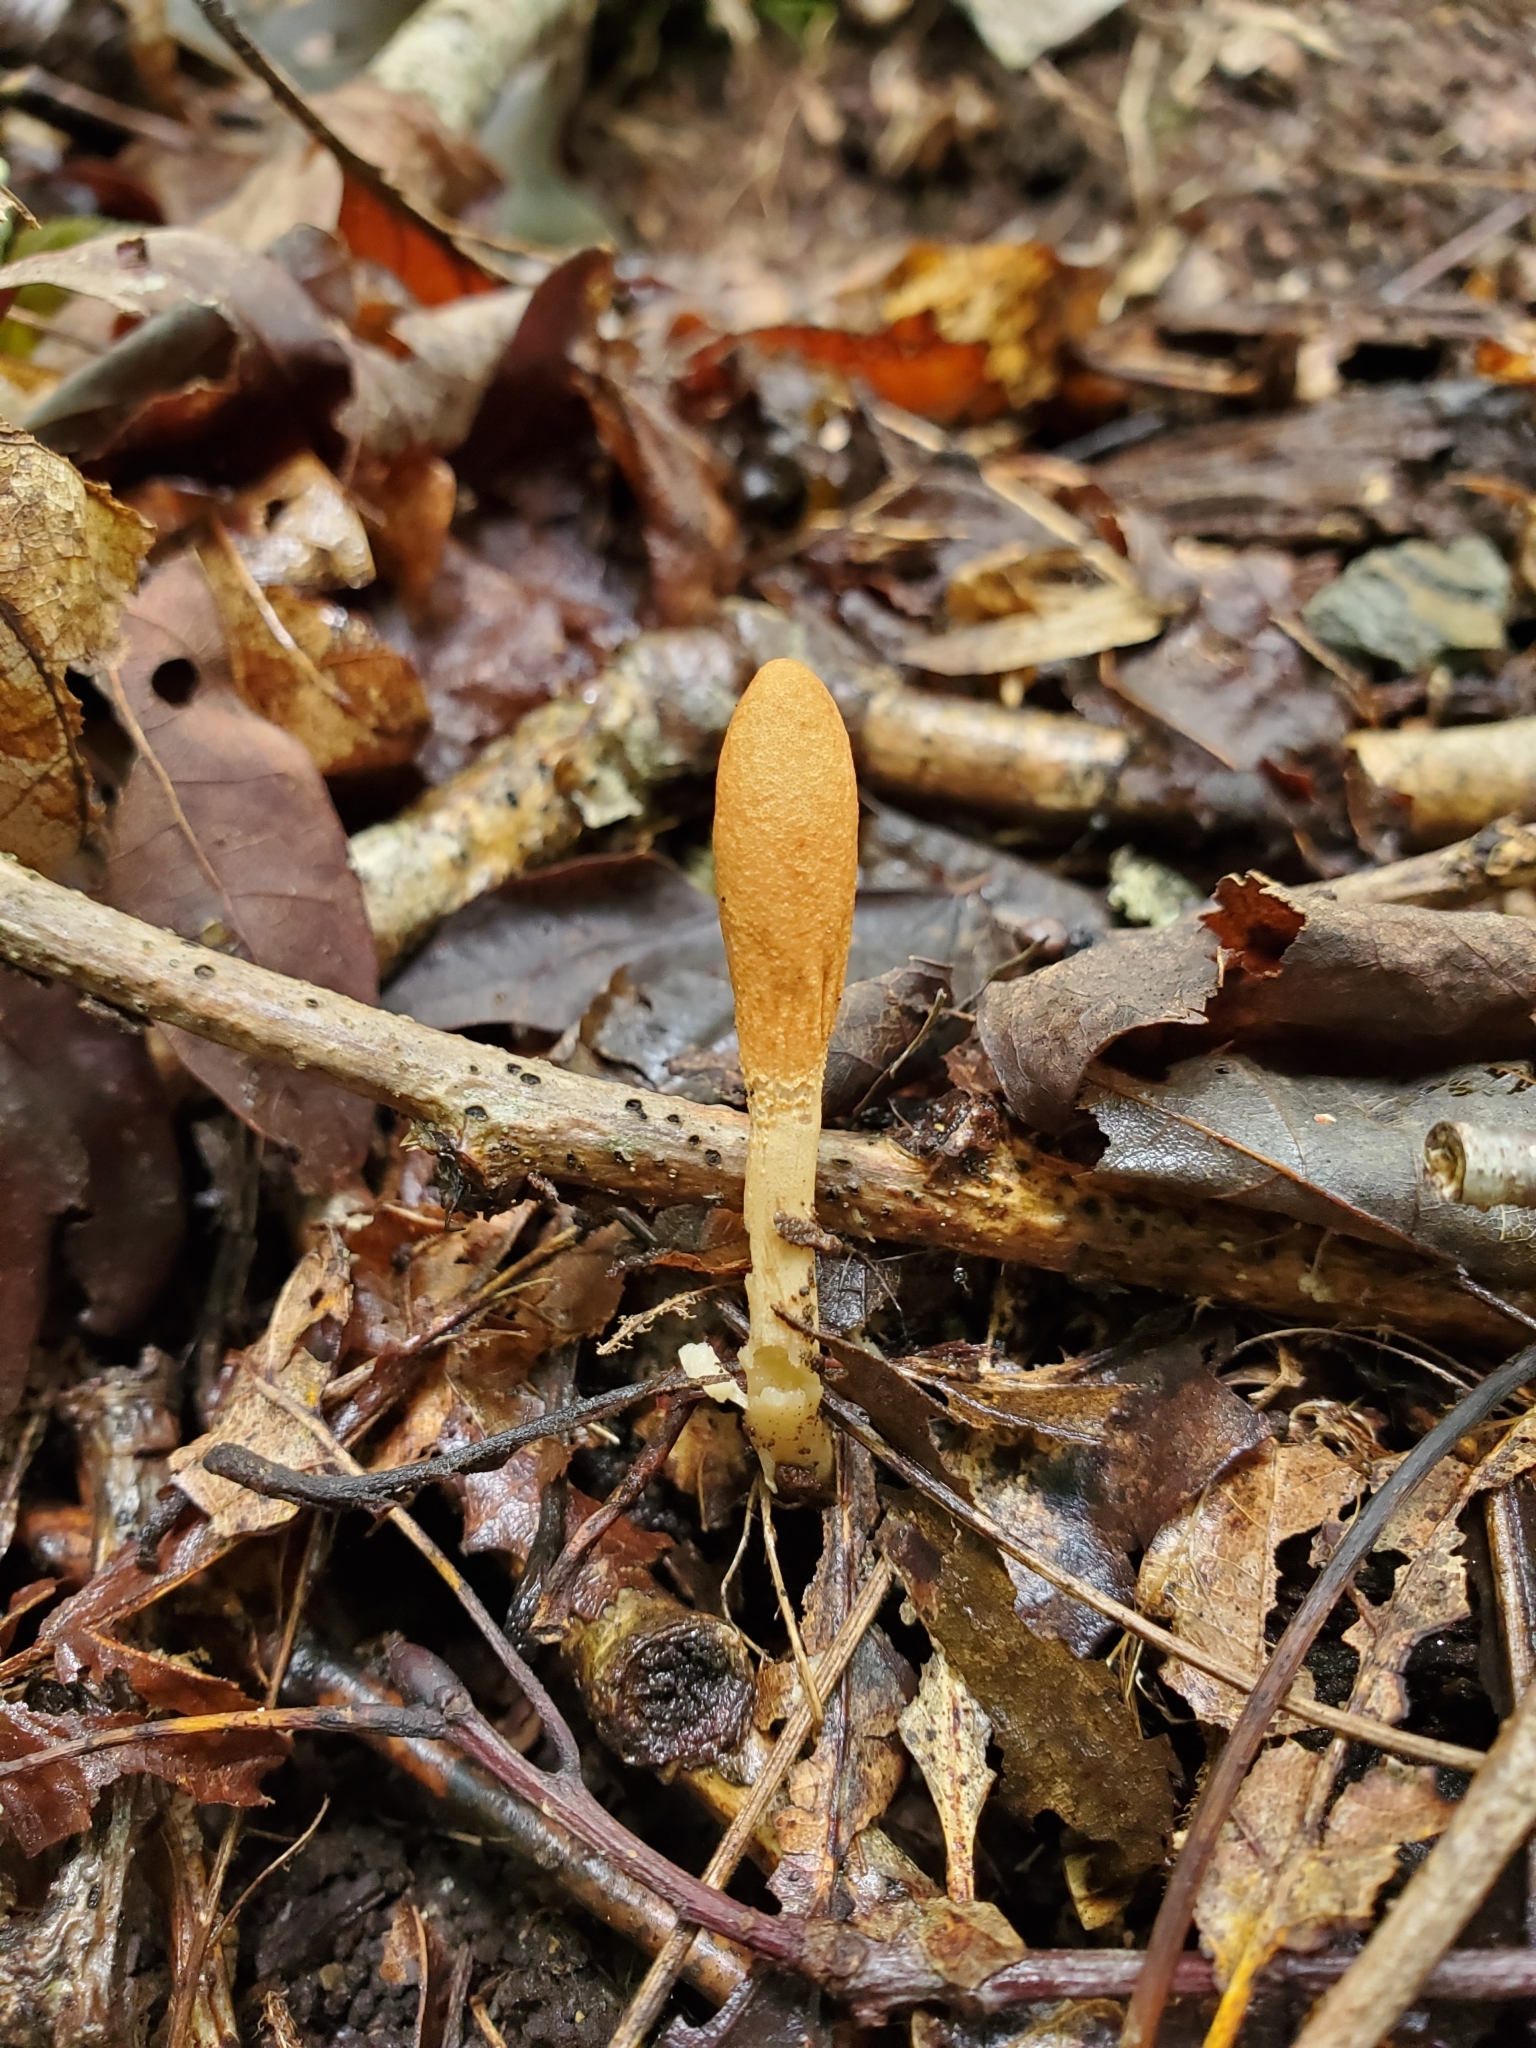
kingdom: Fungi
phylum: Ascomycota
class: Sordariomycetes
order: Hypocreales
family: Hypocreaceae
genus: Trichoderma
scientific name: Trichoderma alutaceum
